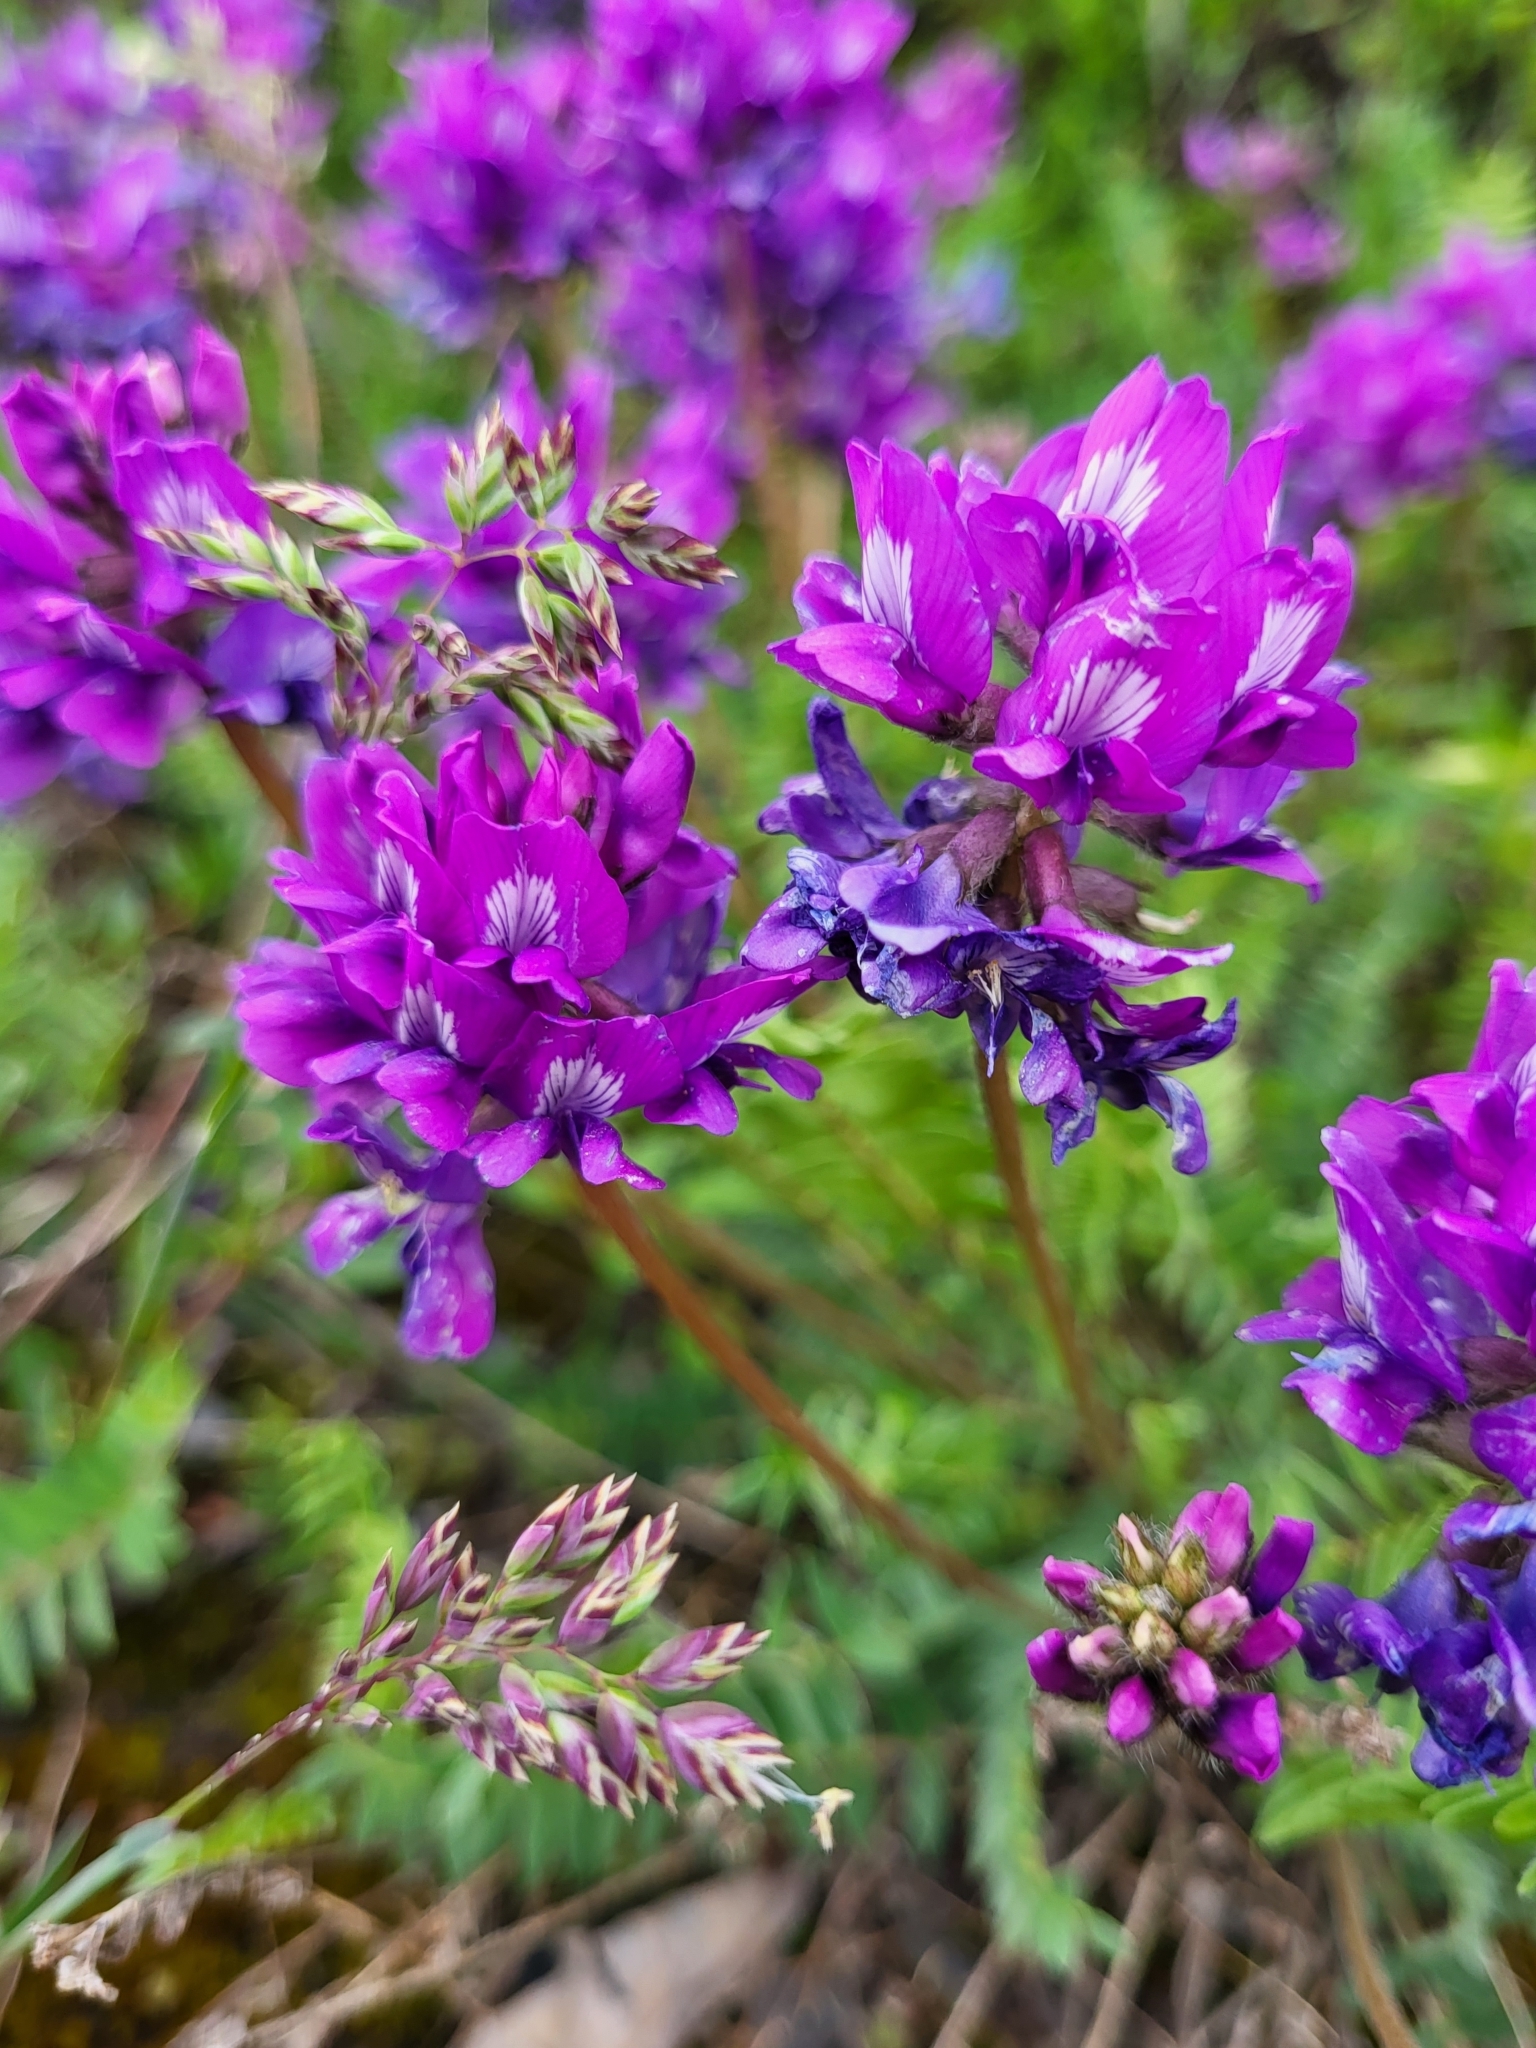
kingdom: Plantae
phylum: Tracheophyta
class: Magnoliopsida
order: Fabales
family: Fabaceae
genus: Oxytropis
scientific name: Oxytropis owerinii
